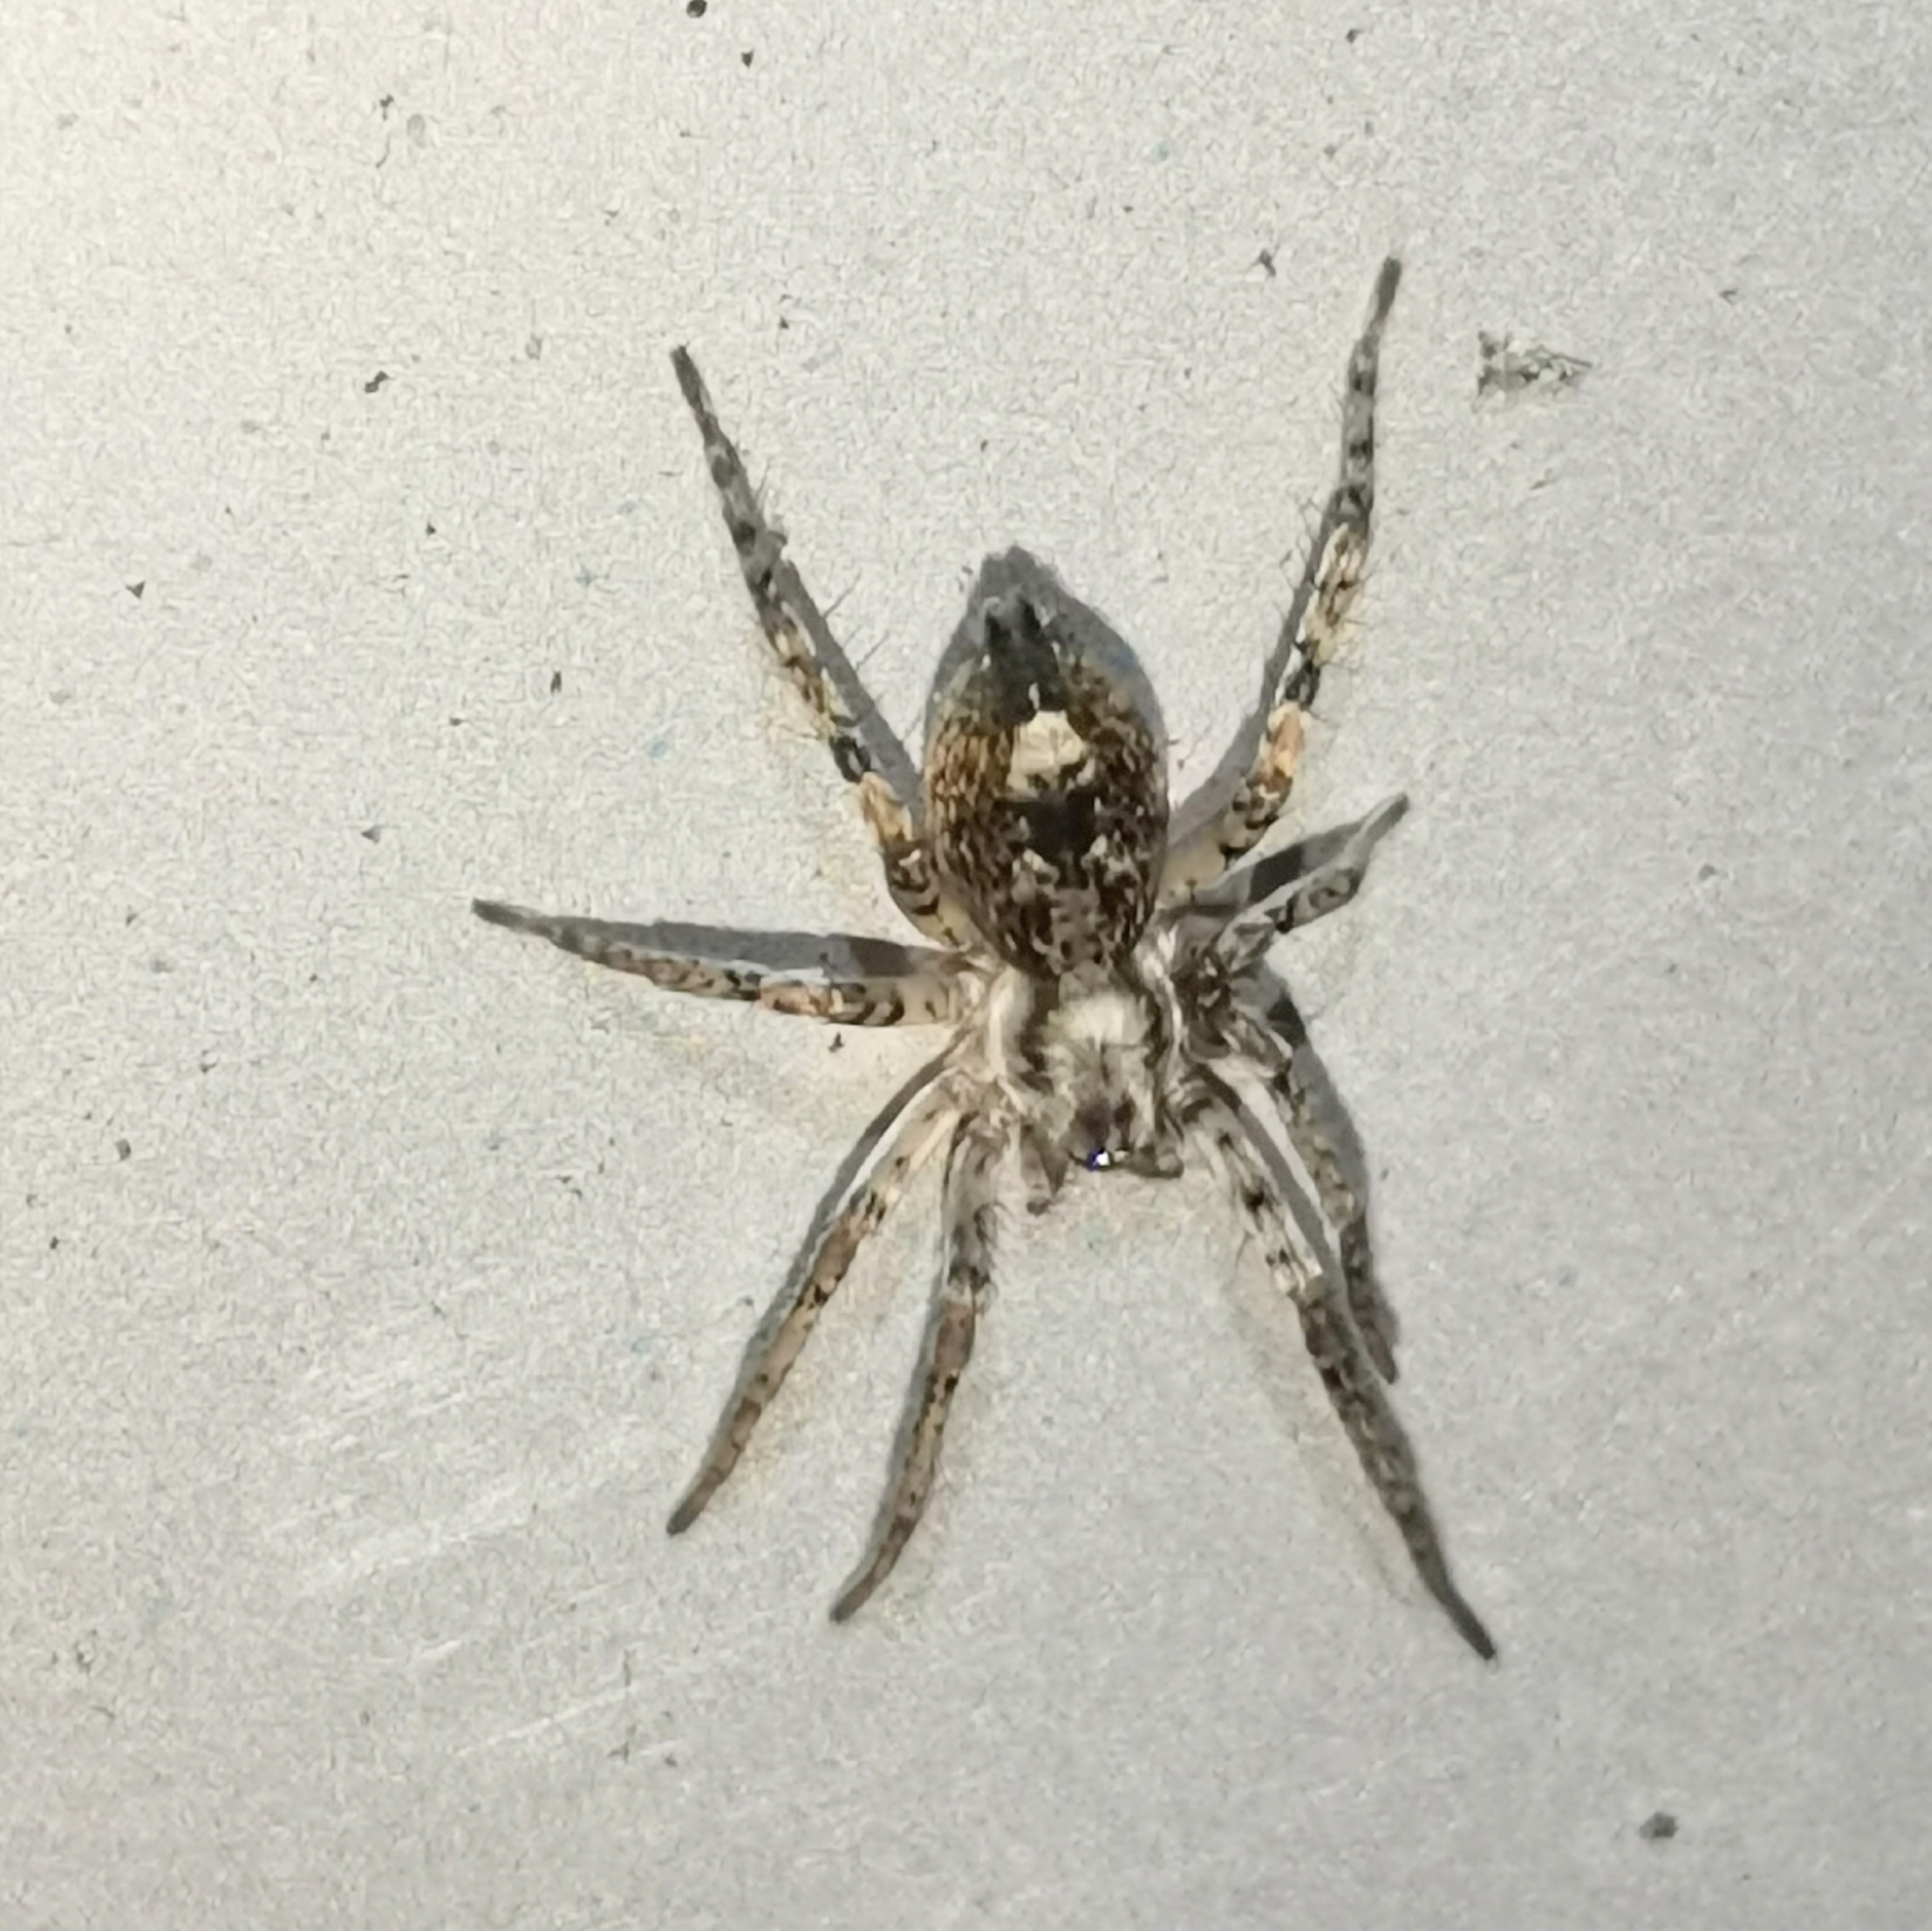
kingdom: Animalia
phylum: Arthropoda
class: Arachnida
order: Araneae
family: Anyphaenidae
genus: Anyphaena
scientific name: Anyphaena accentuata
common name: Buzzing spider
